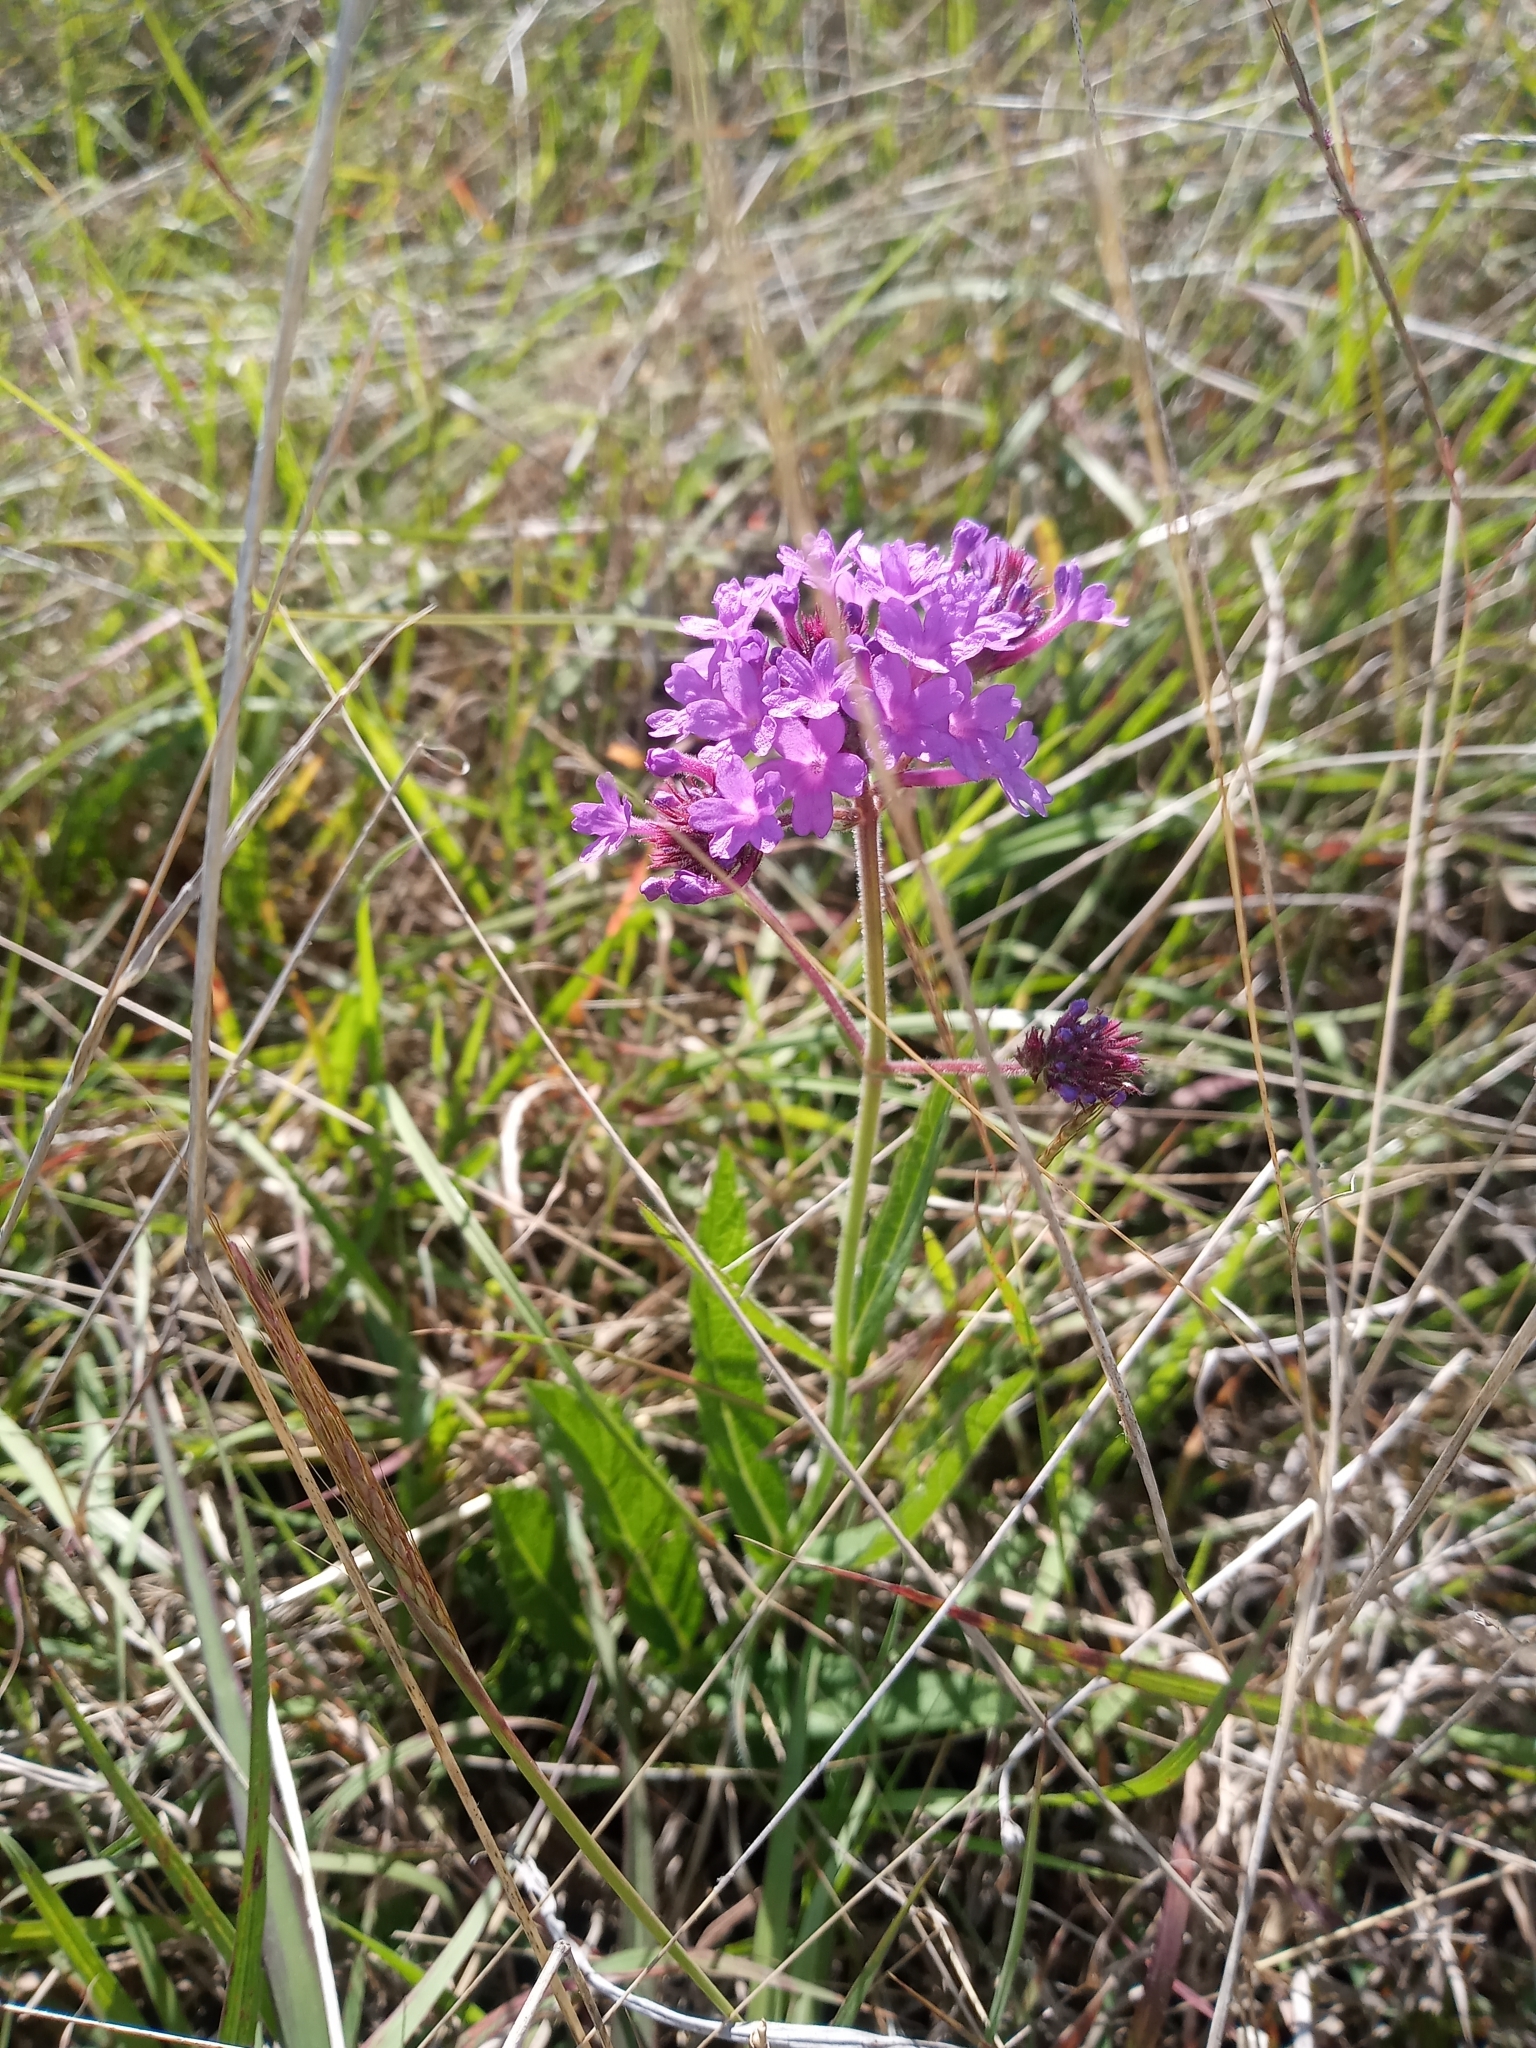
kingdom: Plantae
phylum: Tracheophyta
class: Magnoliopsida
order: Lamiales
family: Verbenaceae
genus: Verbena
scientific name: Verbena rigida
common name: Slender vervain
